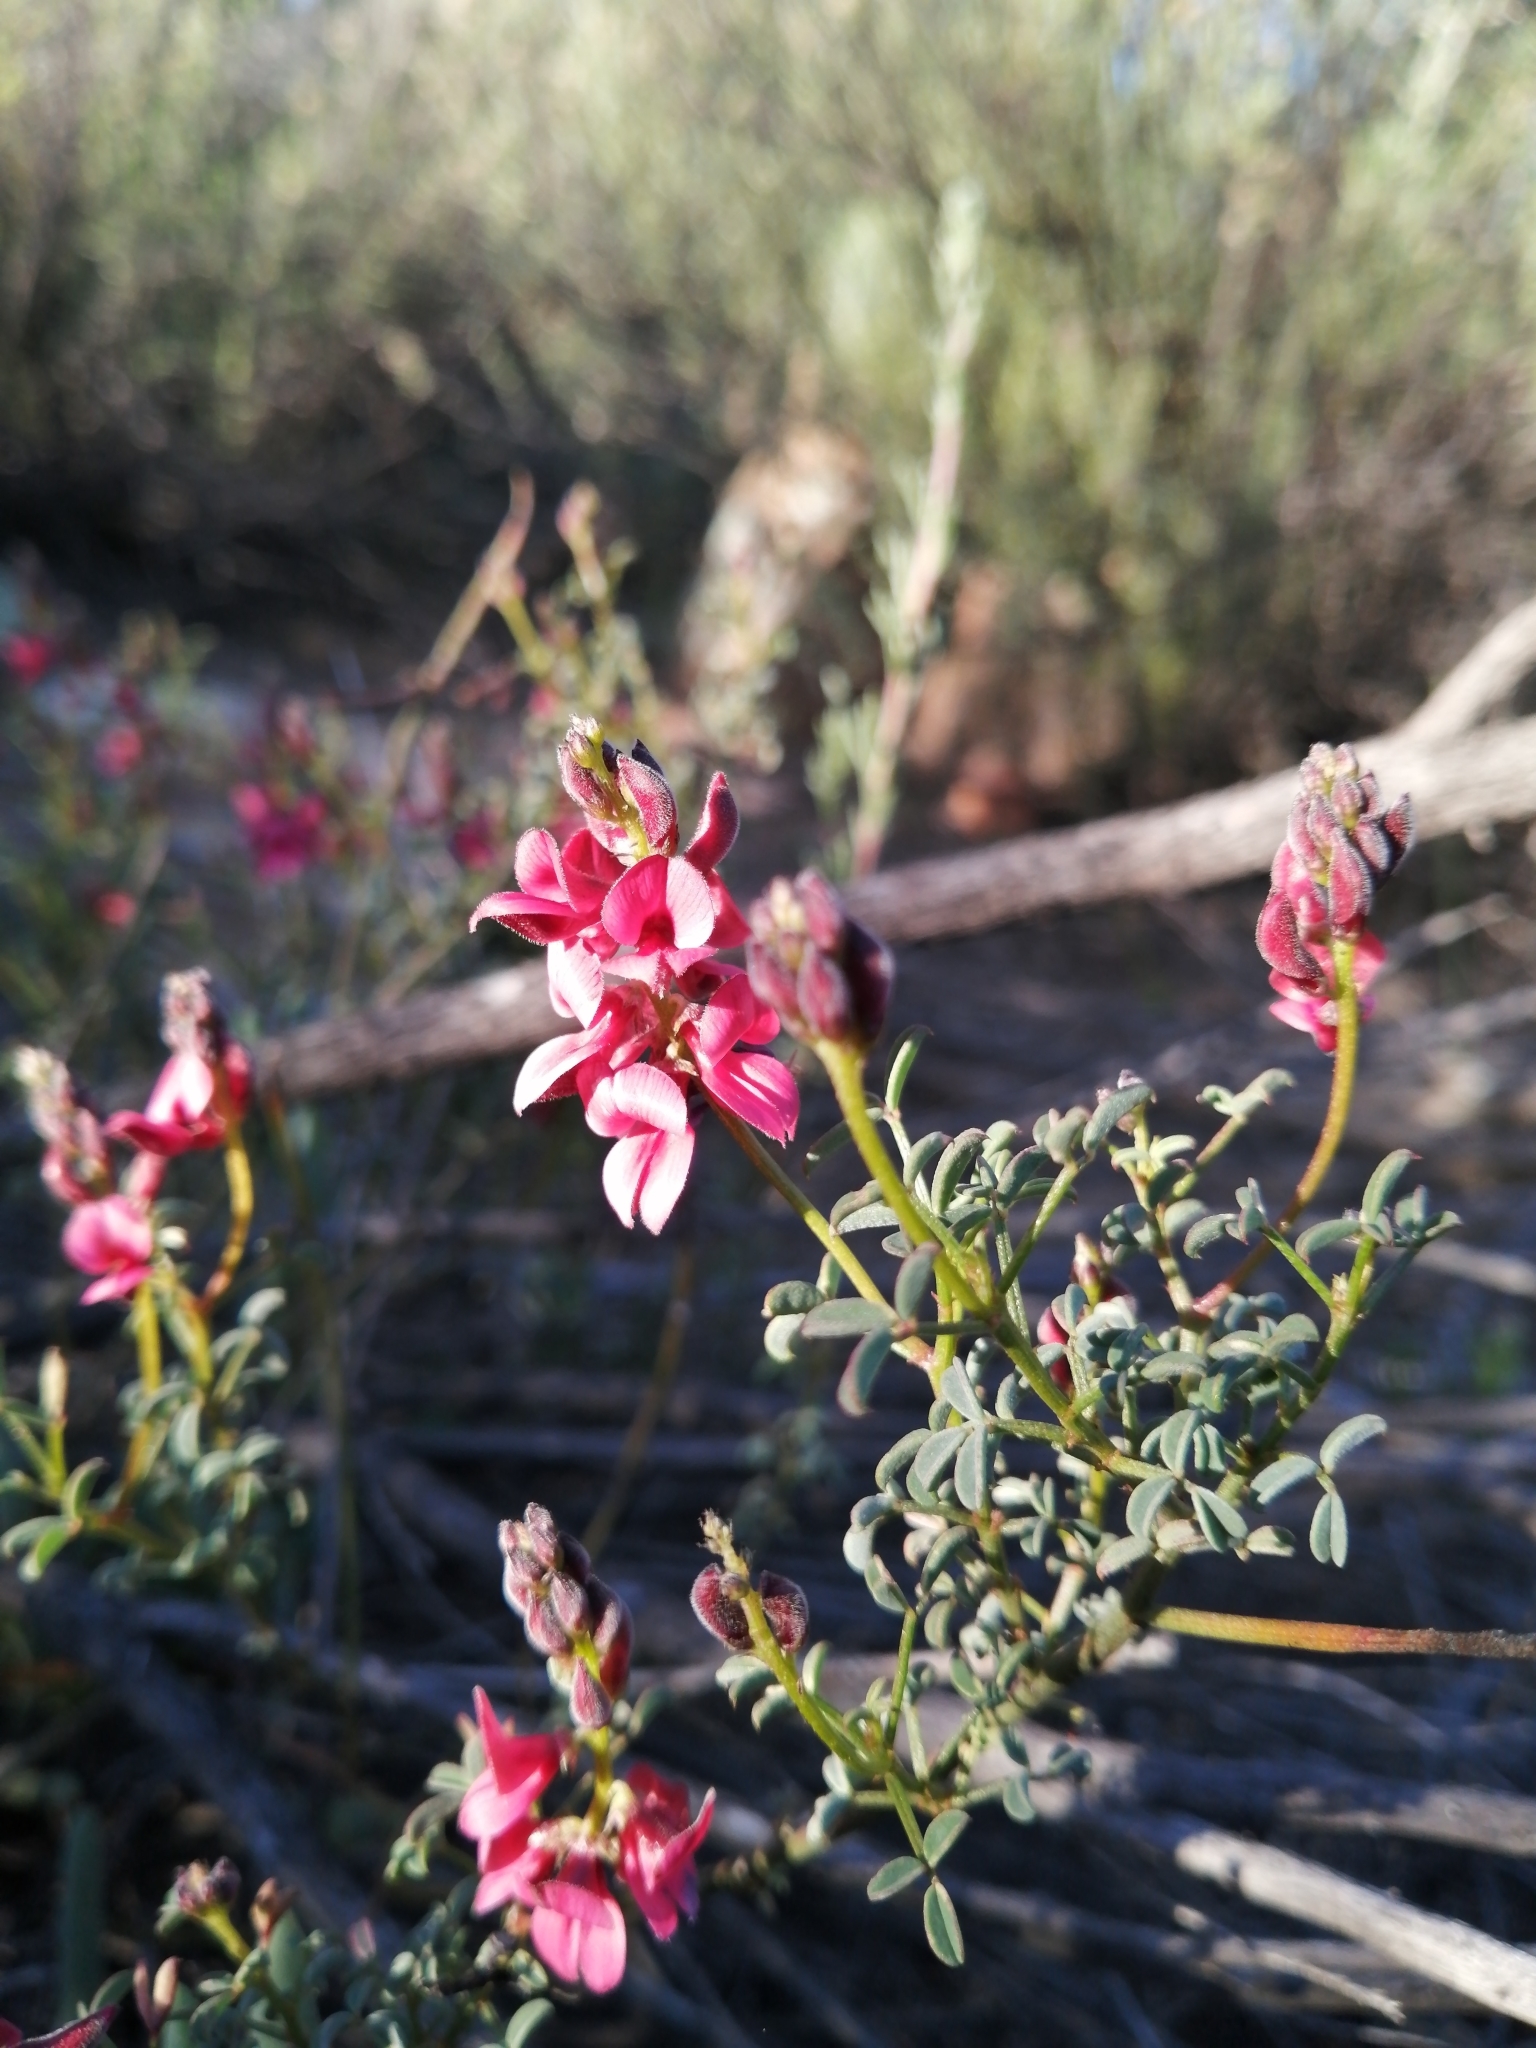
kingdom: Plantae
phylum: Tracheophyta
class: Magnoliopsida
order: Fabales
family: Fabaceae
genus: Indigofera
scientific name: Indigofera heterophylla
